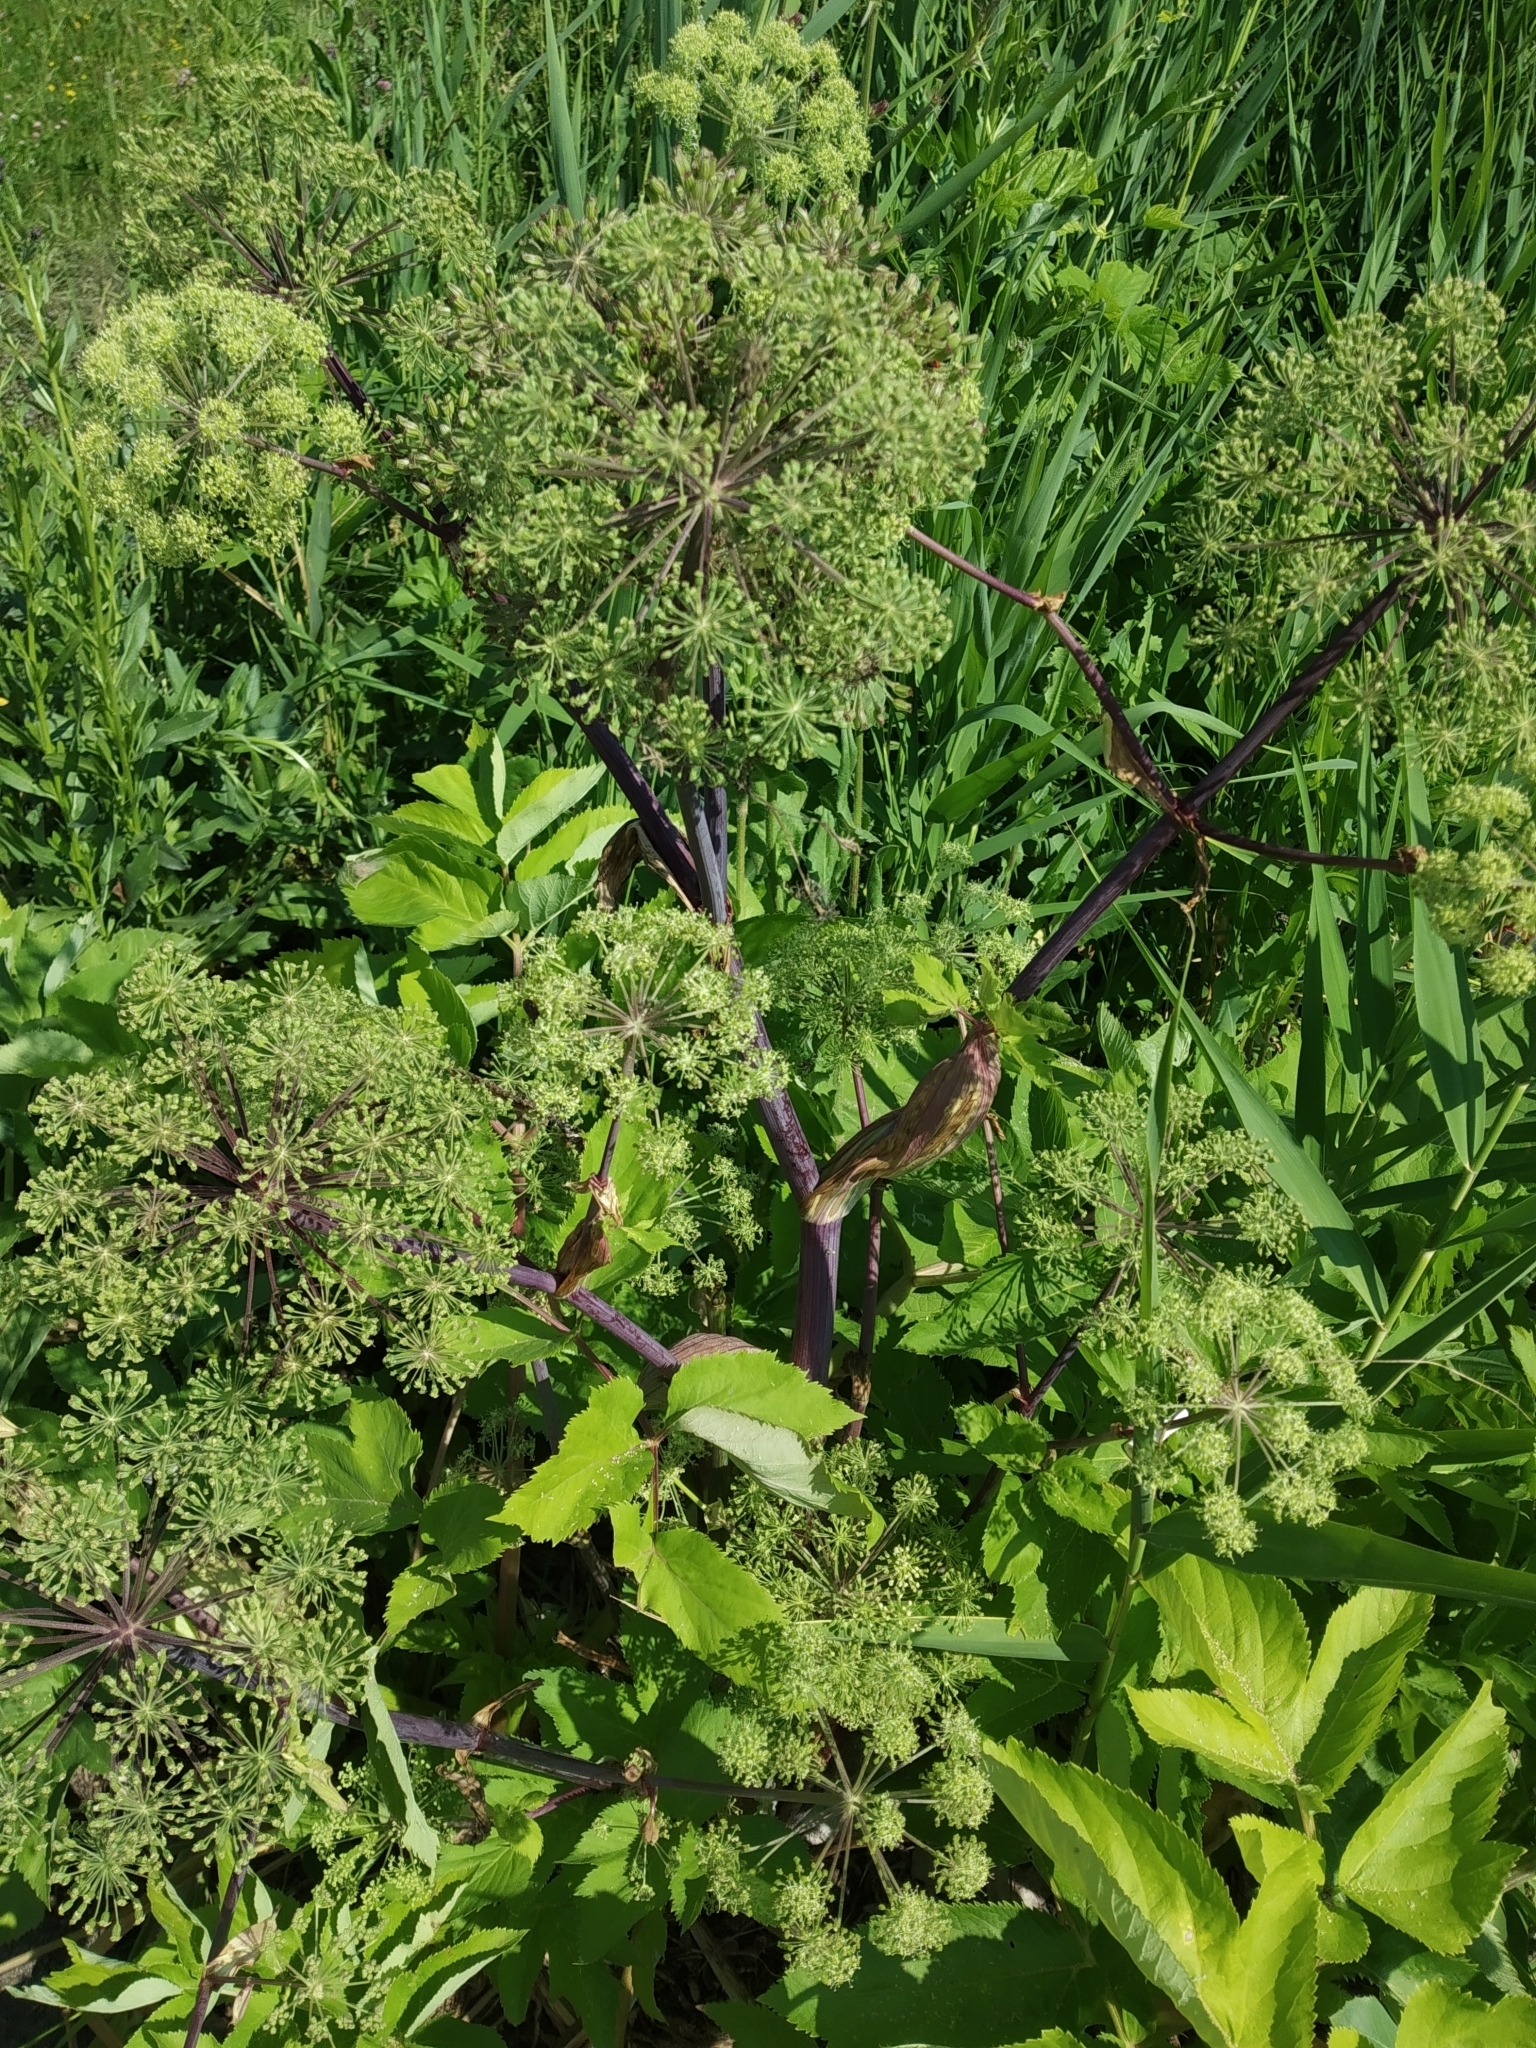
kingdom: Plantae
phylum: Tracheophyta
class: Magnoliopsida
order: Apiales
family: Apiaceae
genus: Angelica
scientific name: Angelica archangelica
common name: Garden angelica
